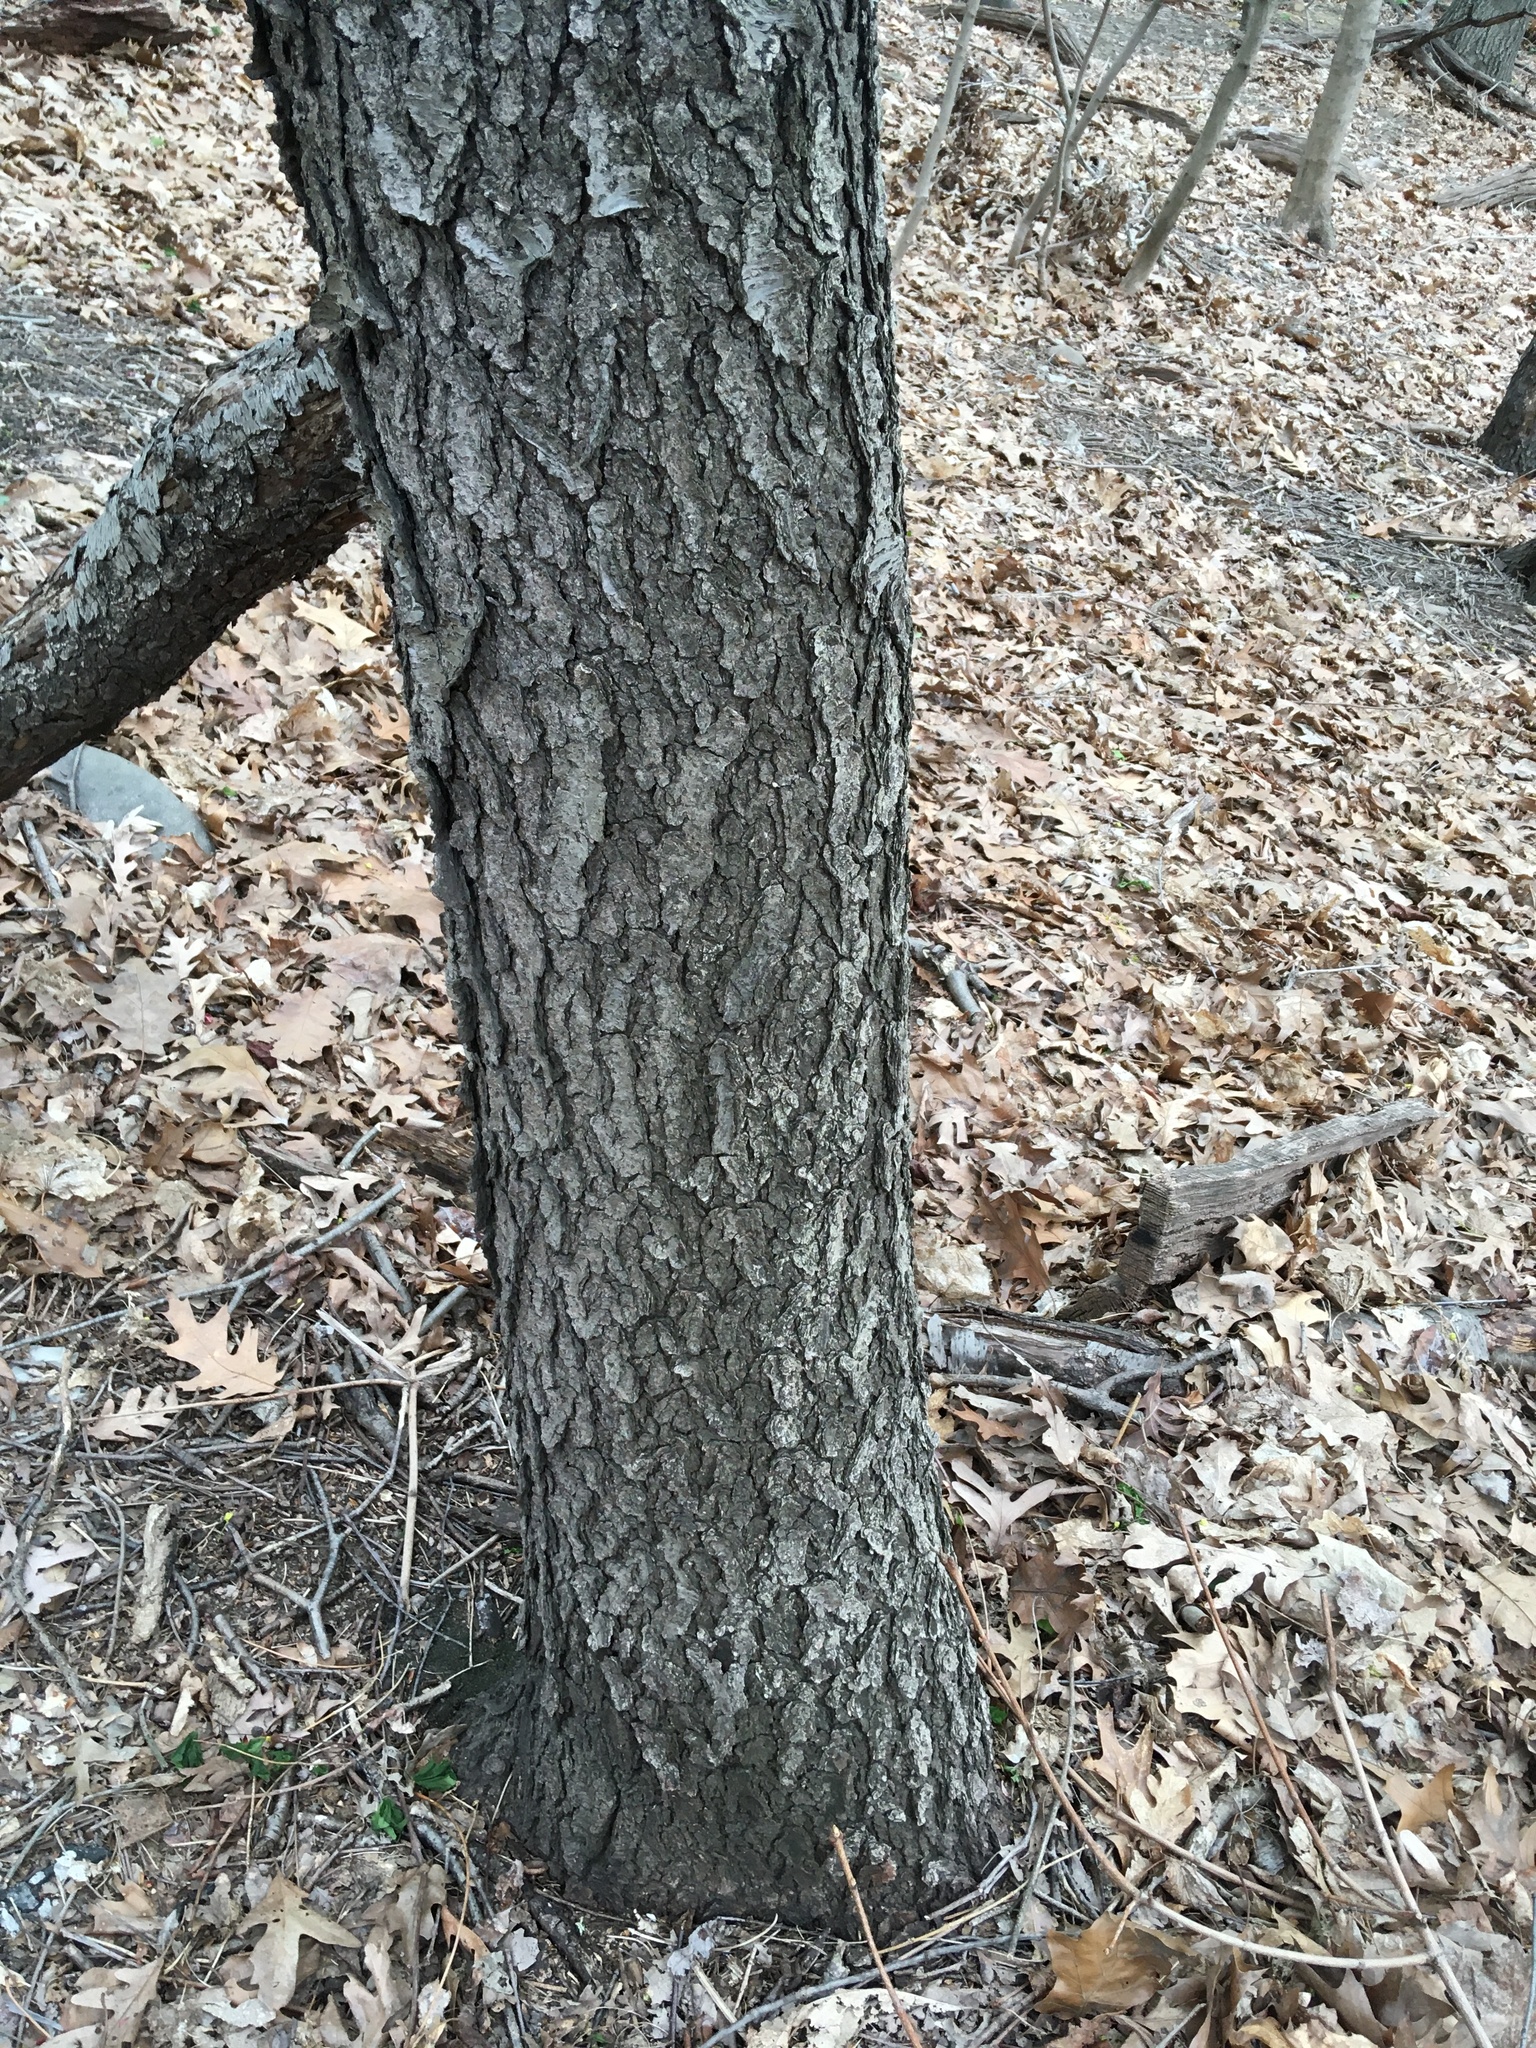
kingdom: Plantae
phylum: Tracheophyta
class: Magnoliopsida
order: Rosales
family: Rosaceae
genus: Prunus
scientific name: Prunus serotina
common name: Black cherry
